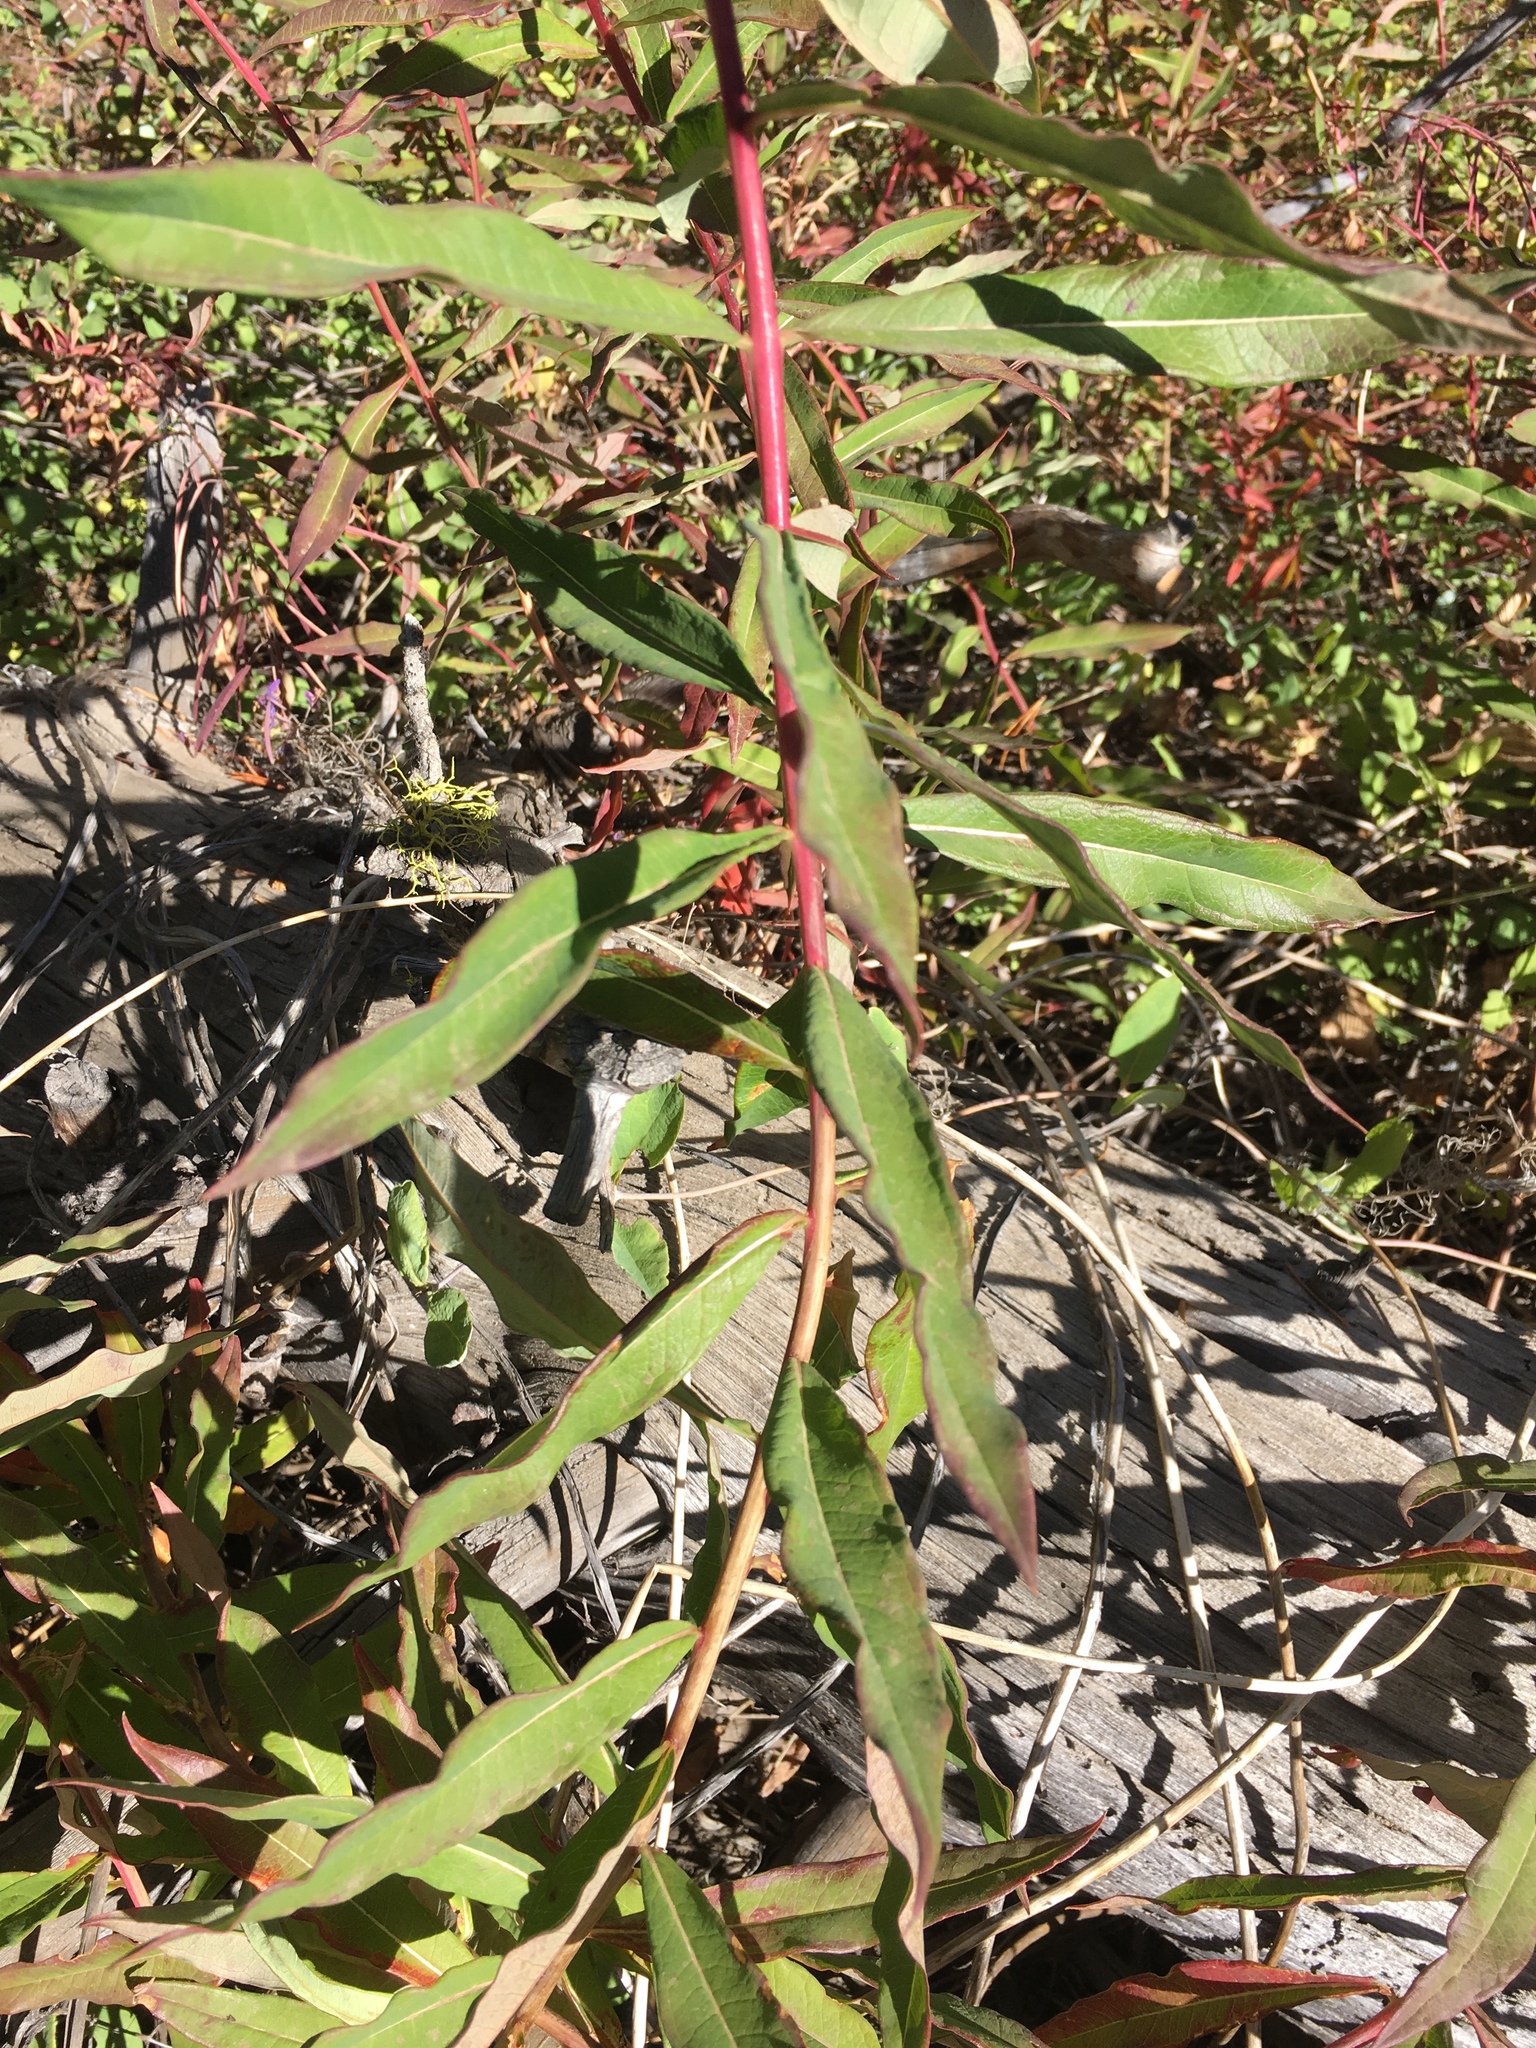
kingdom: Plantae
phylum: Tracheophyta
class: Magnoliopsida
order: Myrtales
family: Onagraceae
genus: Chamaenerion
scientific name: Chamaenerion angustifolium
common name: Fireweed
